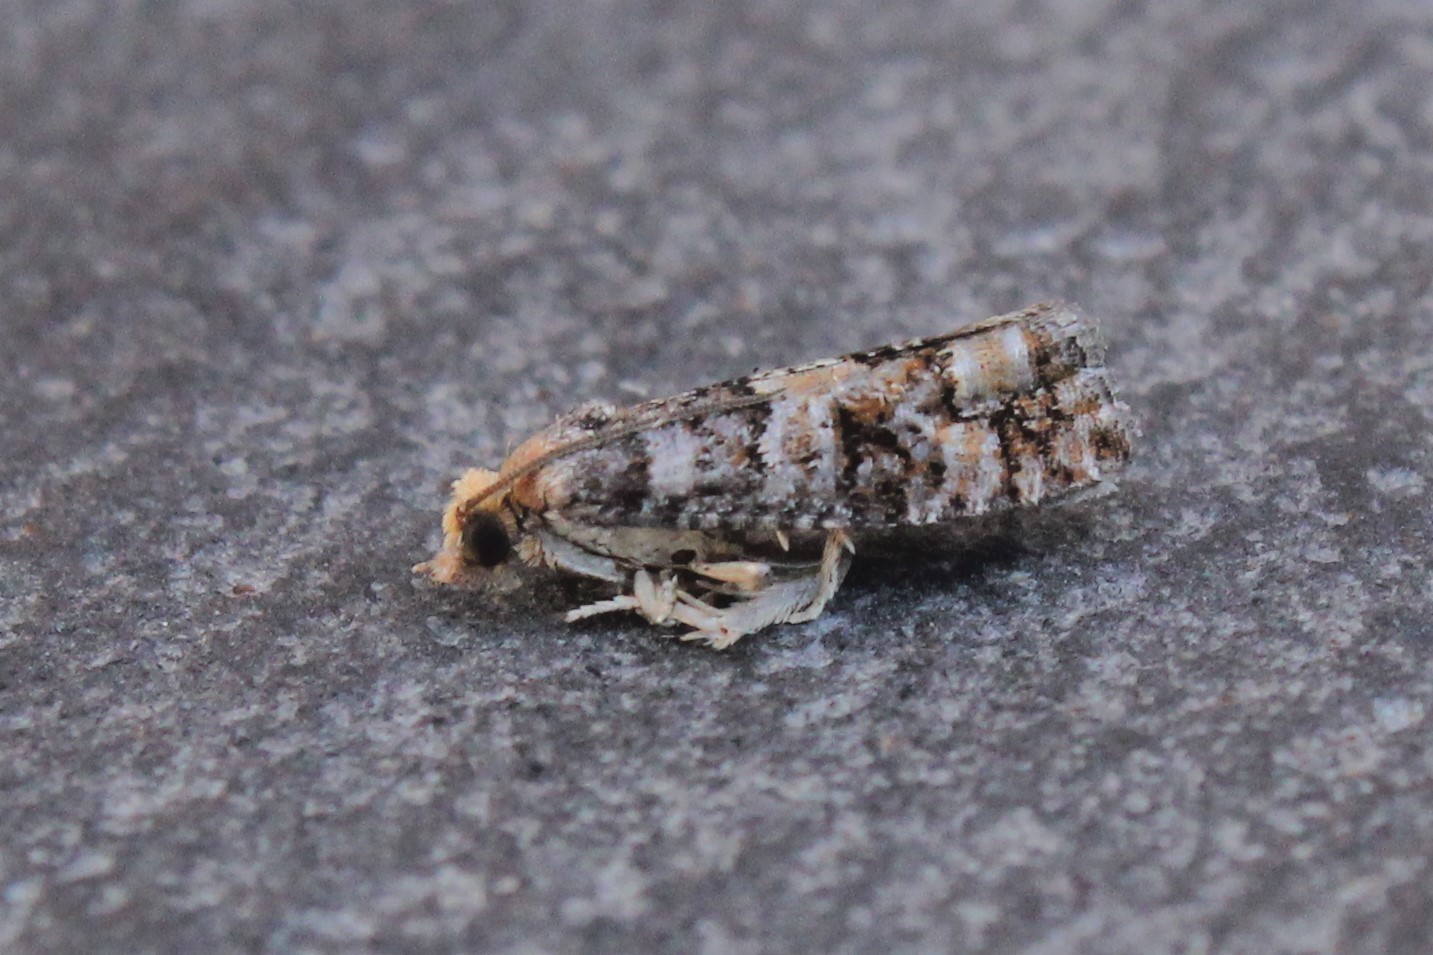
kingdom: Animalia
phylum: Arthropoda
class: Insecta
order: Lepidoptera
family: Tortricidae
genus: Eucopina
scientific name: Eucopina tocullionana
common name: White pinecone borer moth
